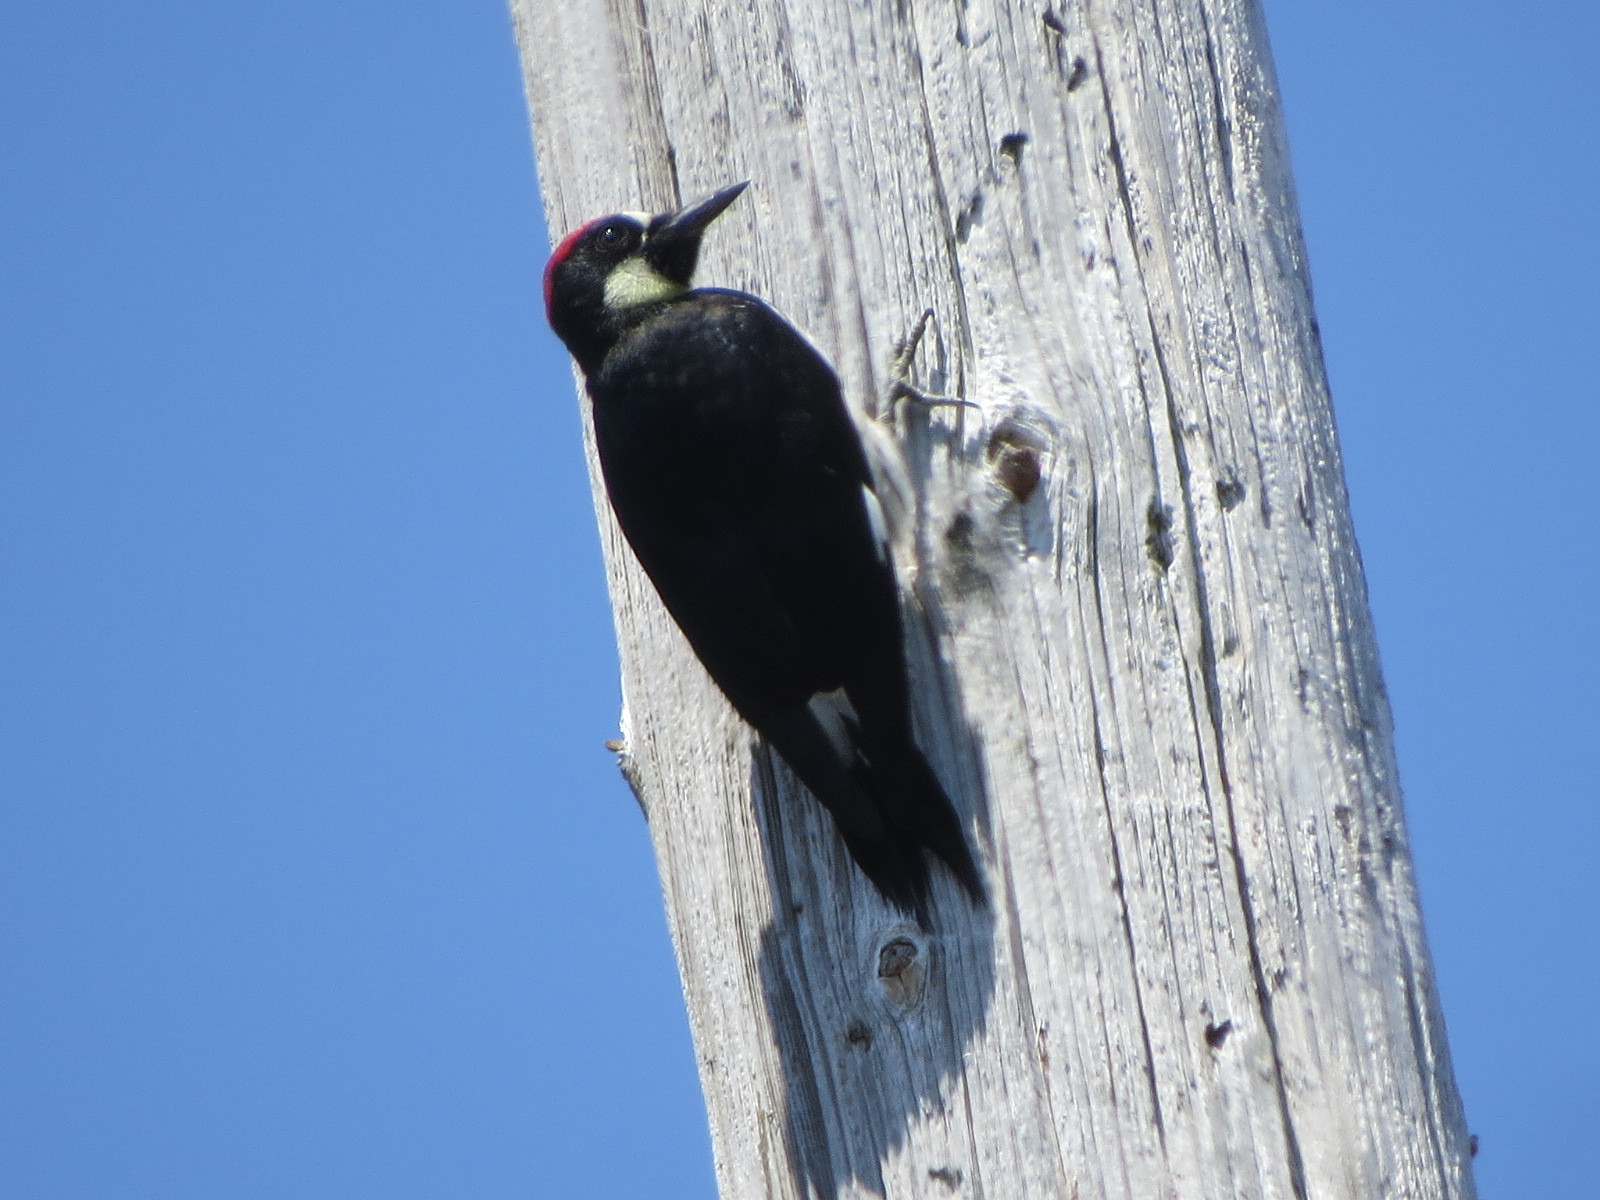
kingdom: Animalia
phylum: Chordata
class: Aves
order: Piciformes
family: Picidae
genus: Melanerpes
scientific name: Melanerpes formicivorus
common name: Acorn woodpecker
